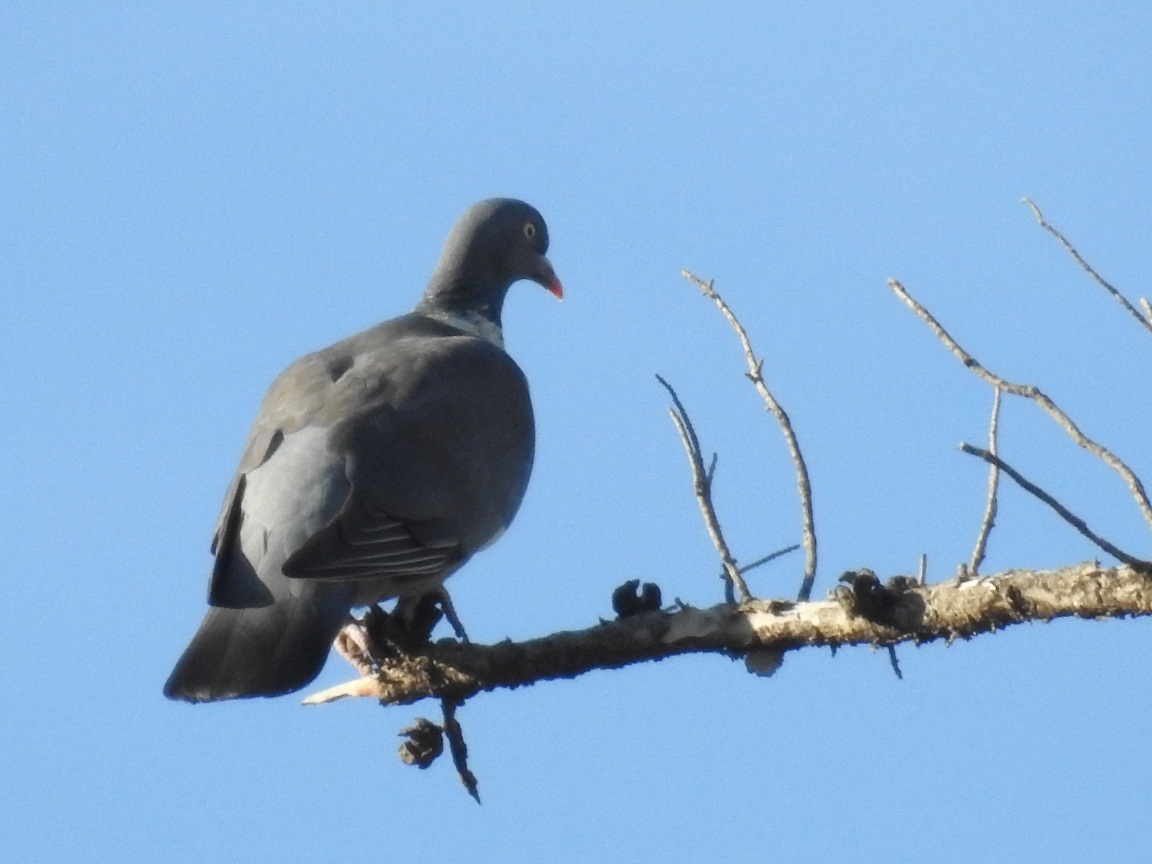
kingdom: Animalia
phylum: Chordata
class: Aves
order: Columbiformes
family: Columbidae
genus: Columba
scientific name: Columba palumbus
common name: Common wood pigeon
